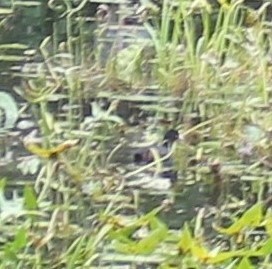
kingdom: Animalia
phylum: Chordata
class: Aves
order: Gruiformes
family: Rallidae
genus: Fulica
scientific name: Fulica atra
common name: Eurasian coot
